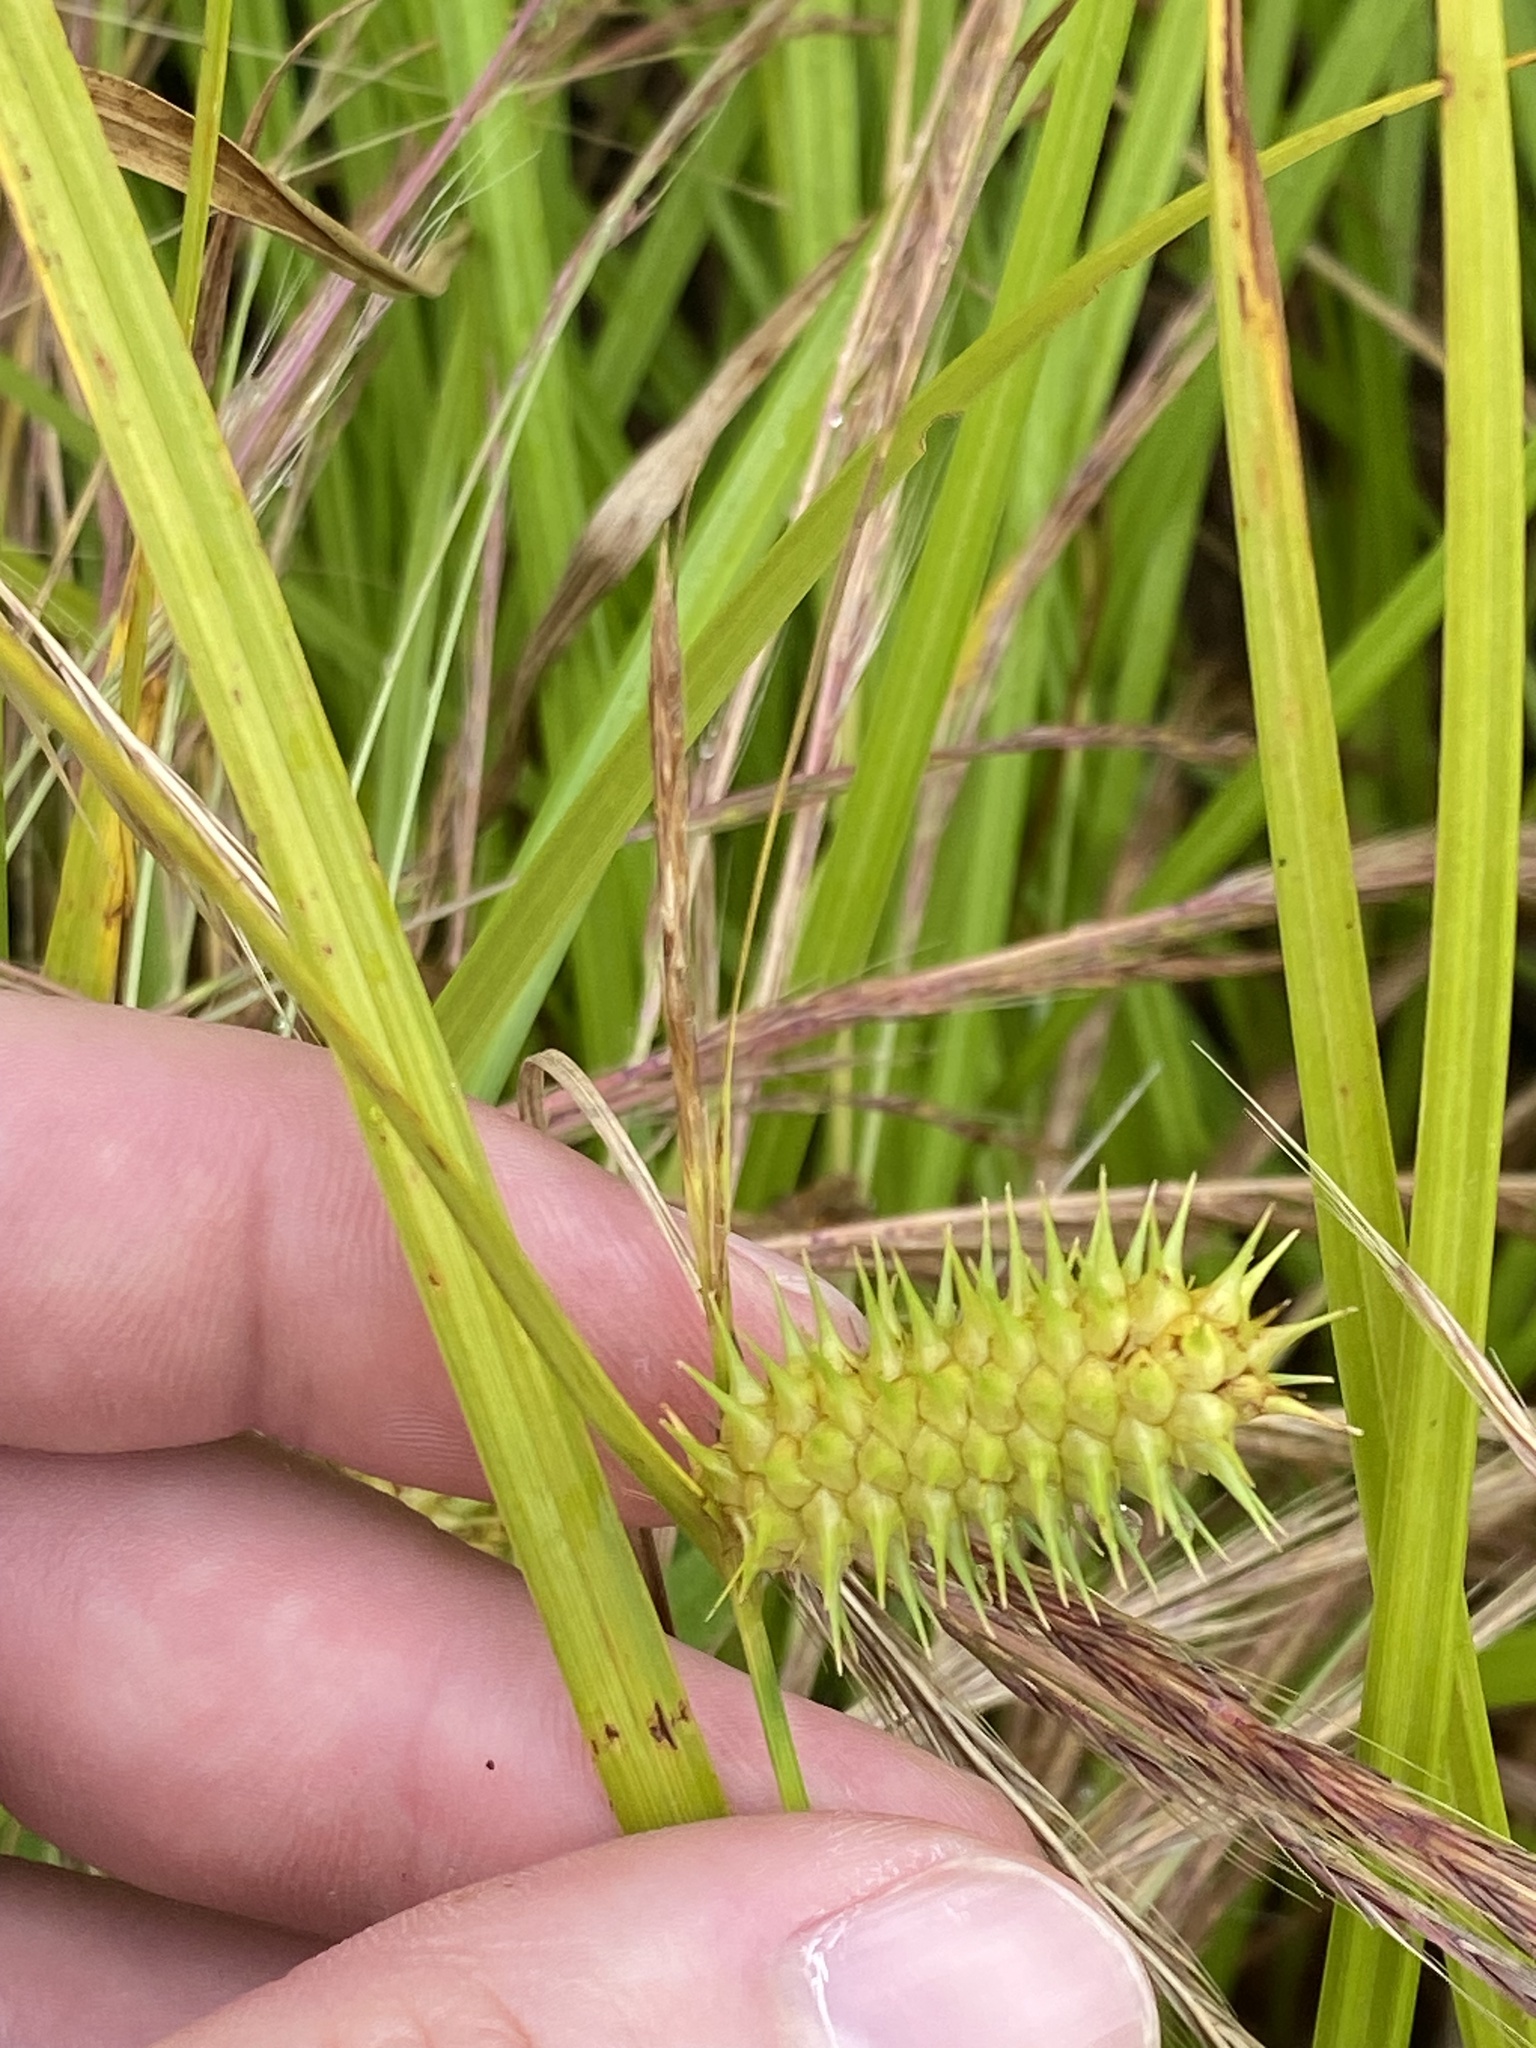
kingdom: Plantae
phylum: Tracheophyta
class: Liliopsida
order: Poales
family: Cyperaceae
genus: Carex
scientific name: Carex lurida
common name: Sallow sedge
